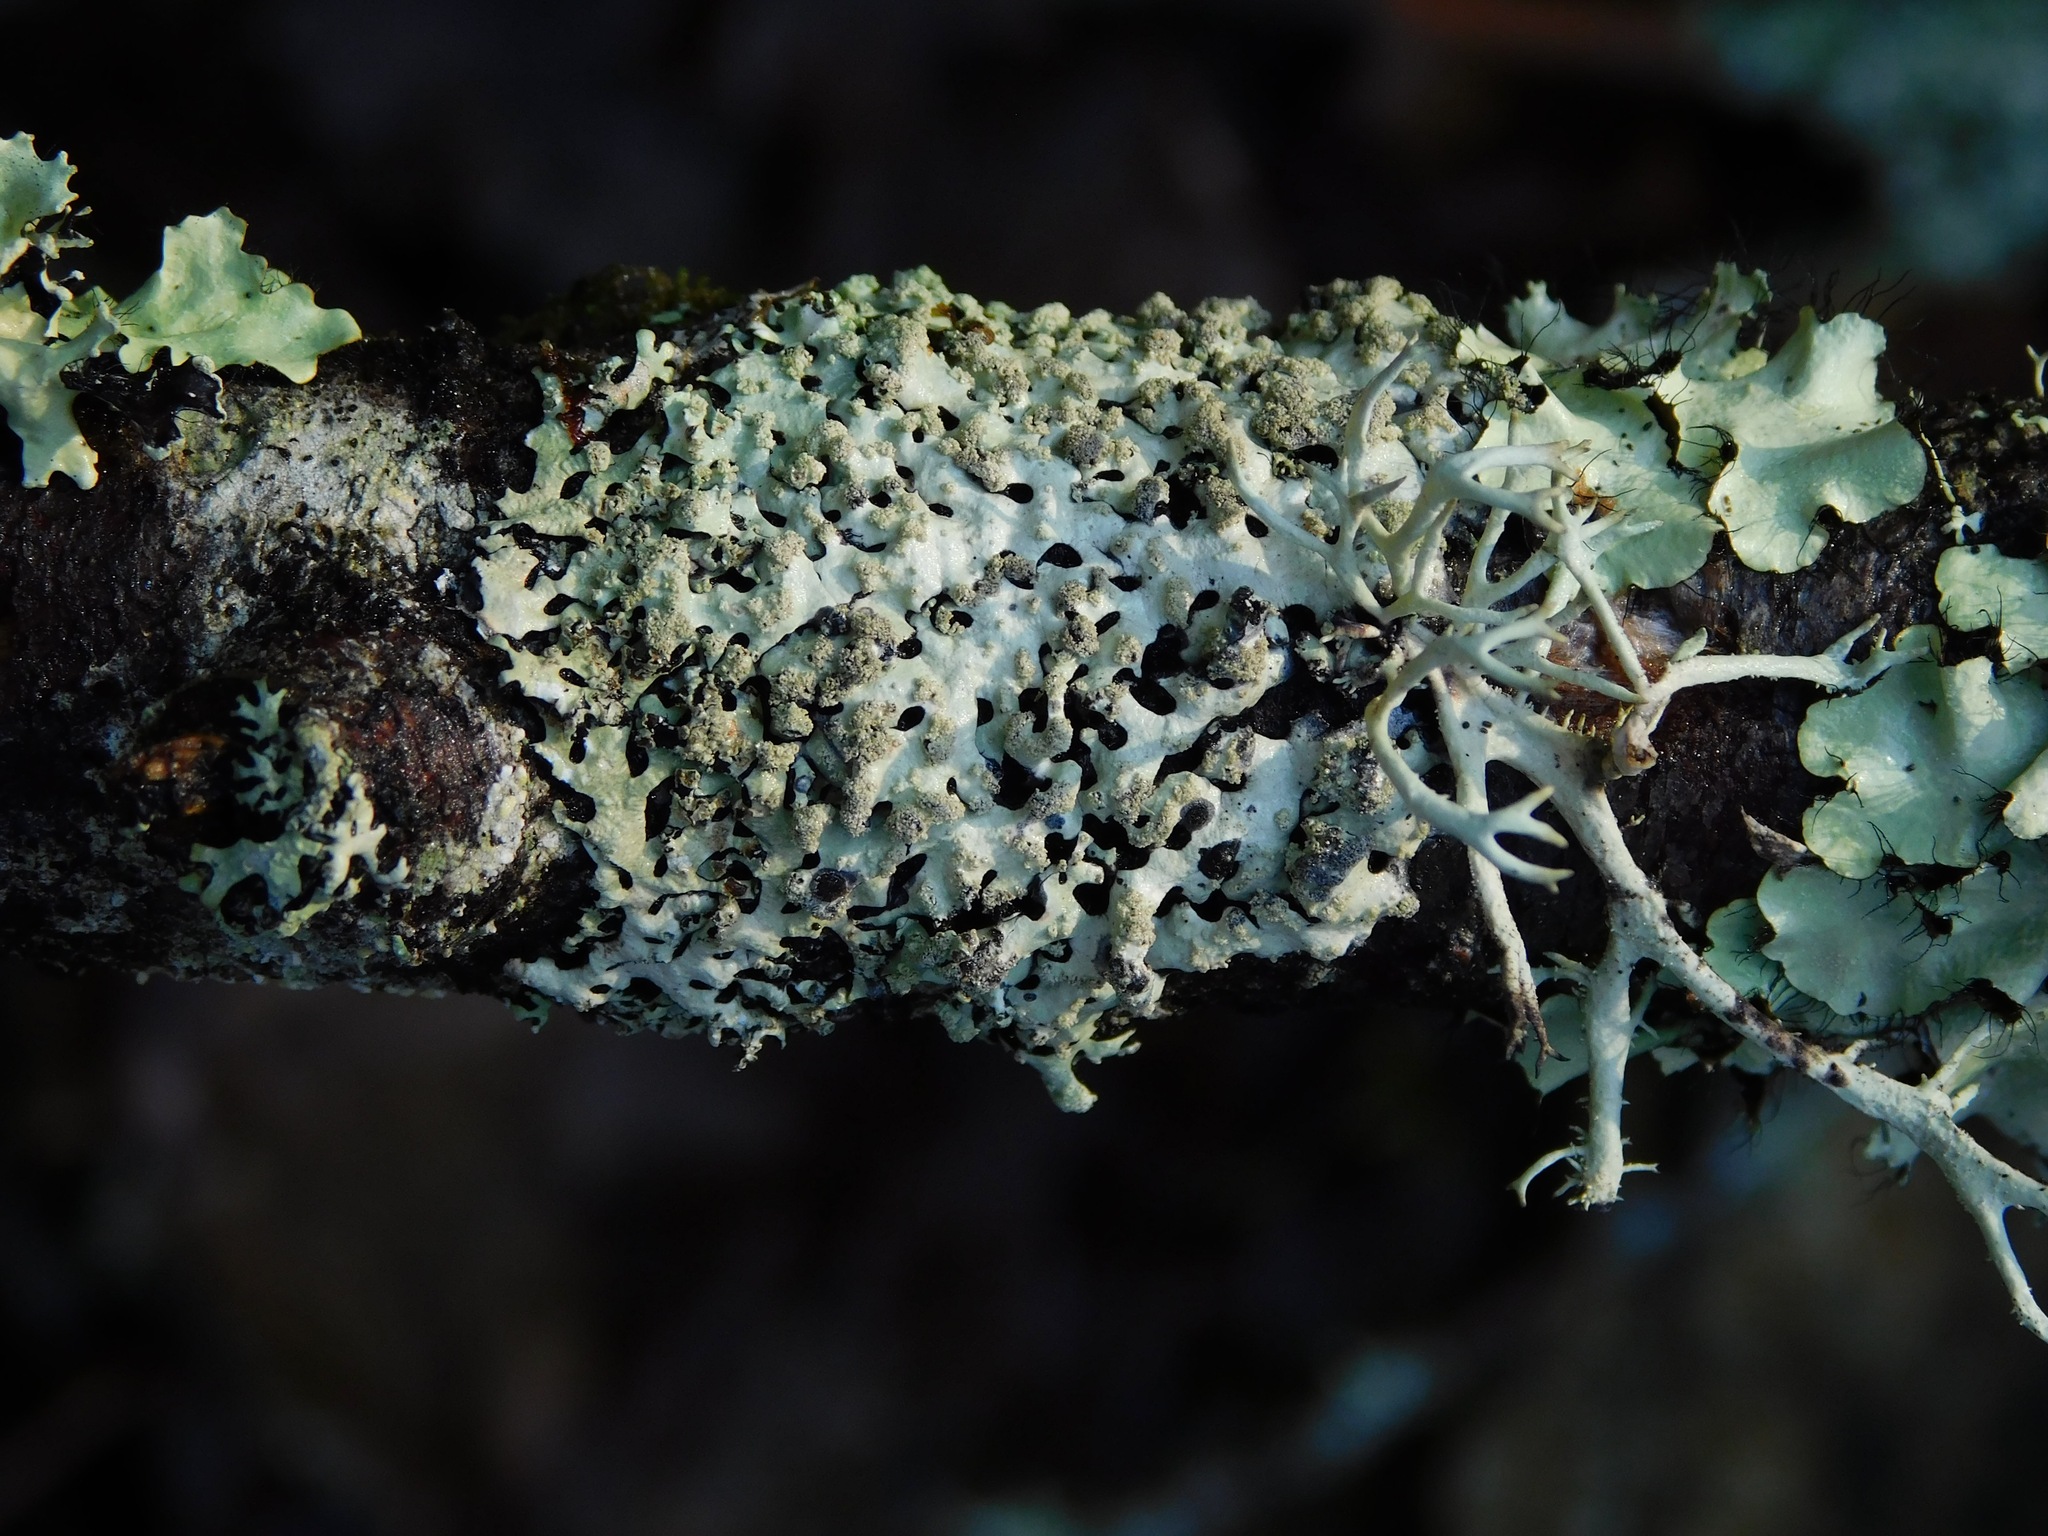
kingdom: Fungi
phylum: Ascomycota
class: Lecanoromycetes
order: Lecanorales
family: Parmeliaceae
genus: Hypotrachyna
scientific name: Hypotrachyna lividescens
